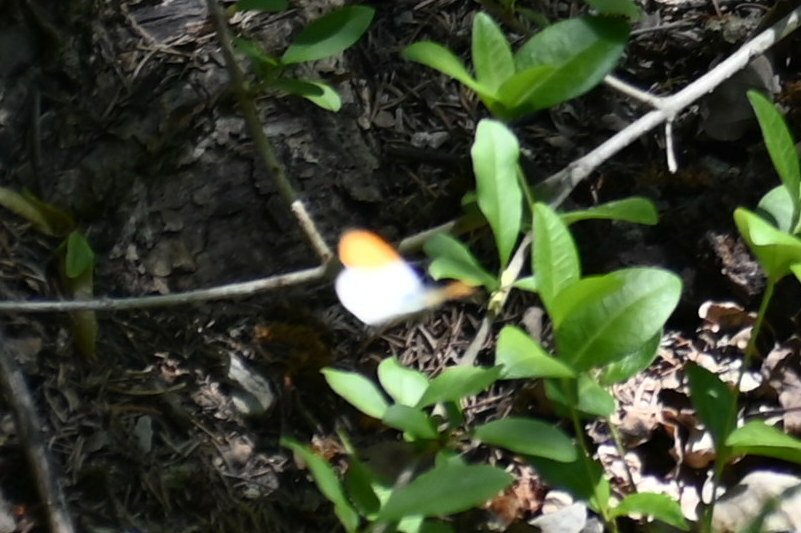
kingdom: Animalia
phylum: Arthropoda
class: Insecta
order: Lepidoptera
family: Pieridae
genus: Anthocharis
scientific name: Anthocharis cardamines
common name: Orange-tip
